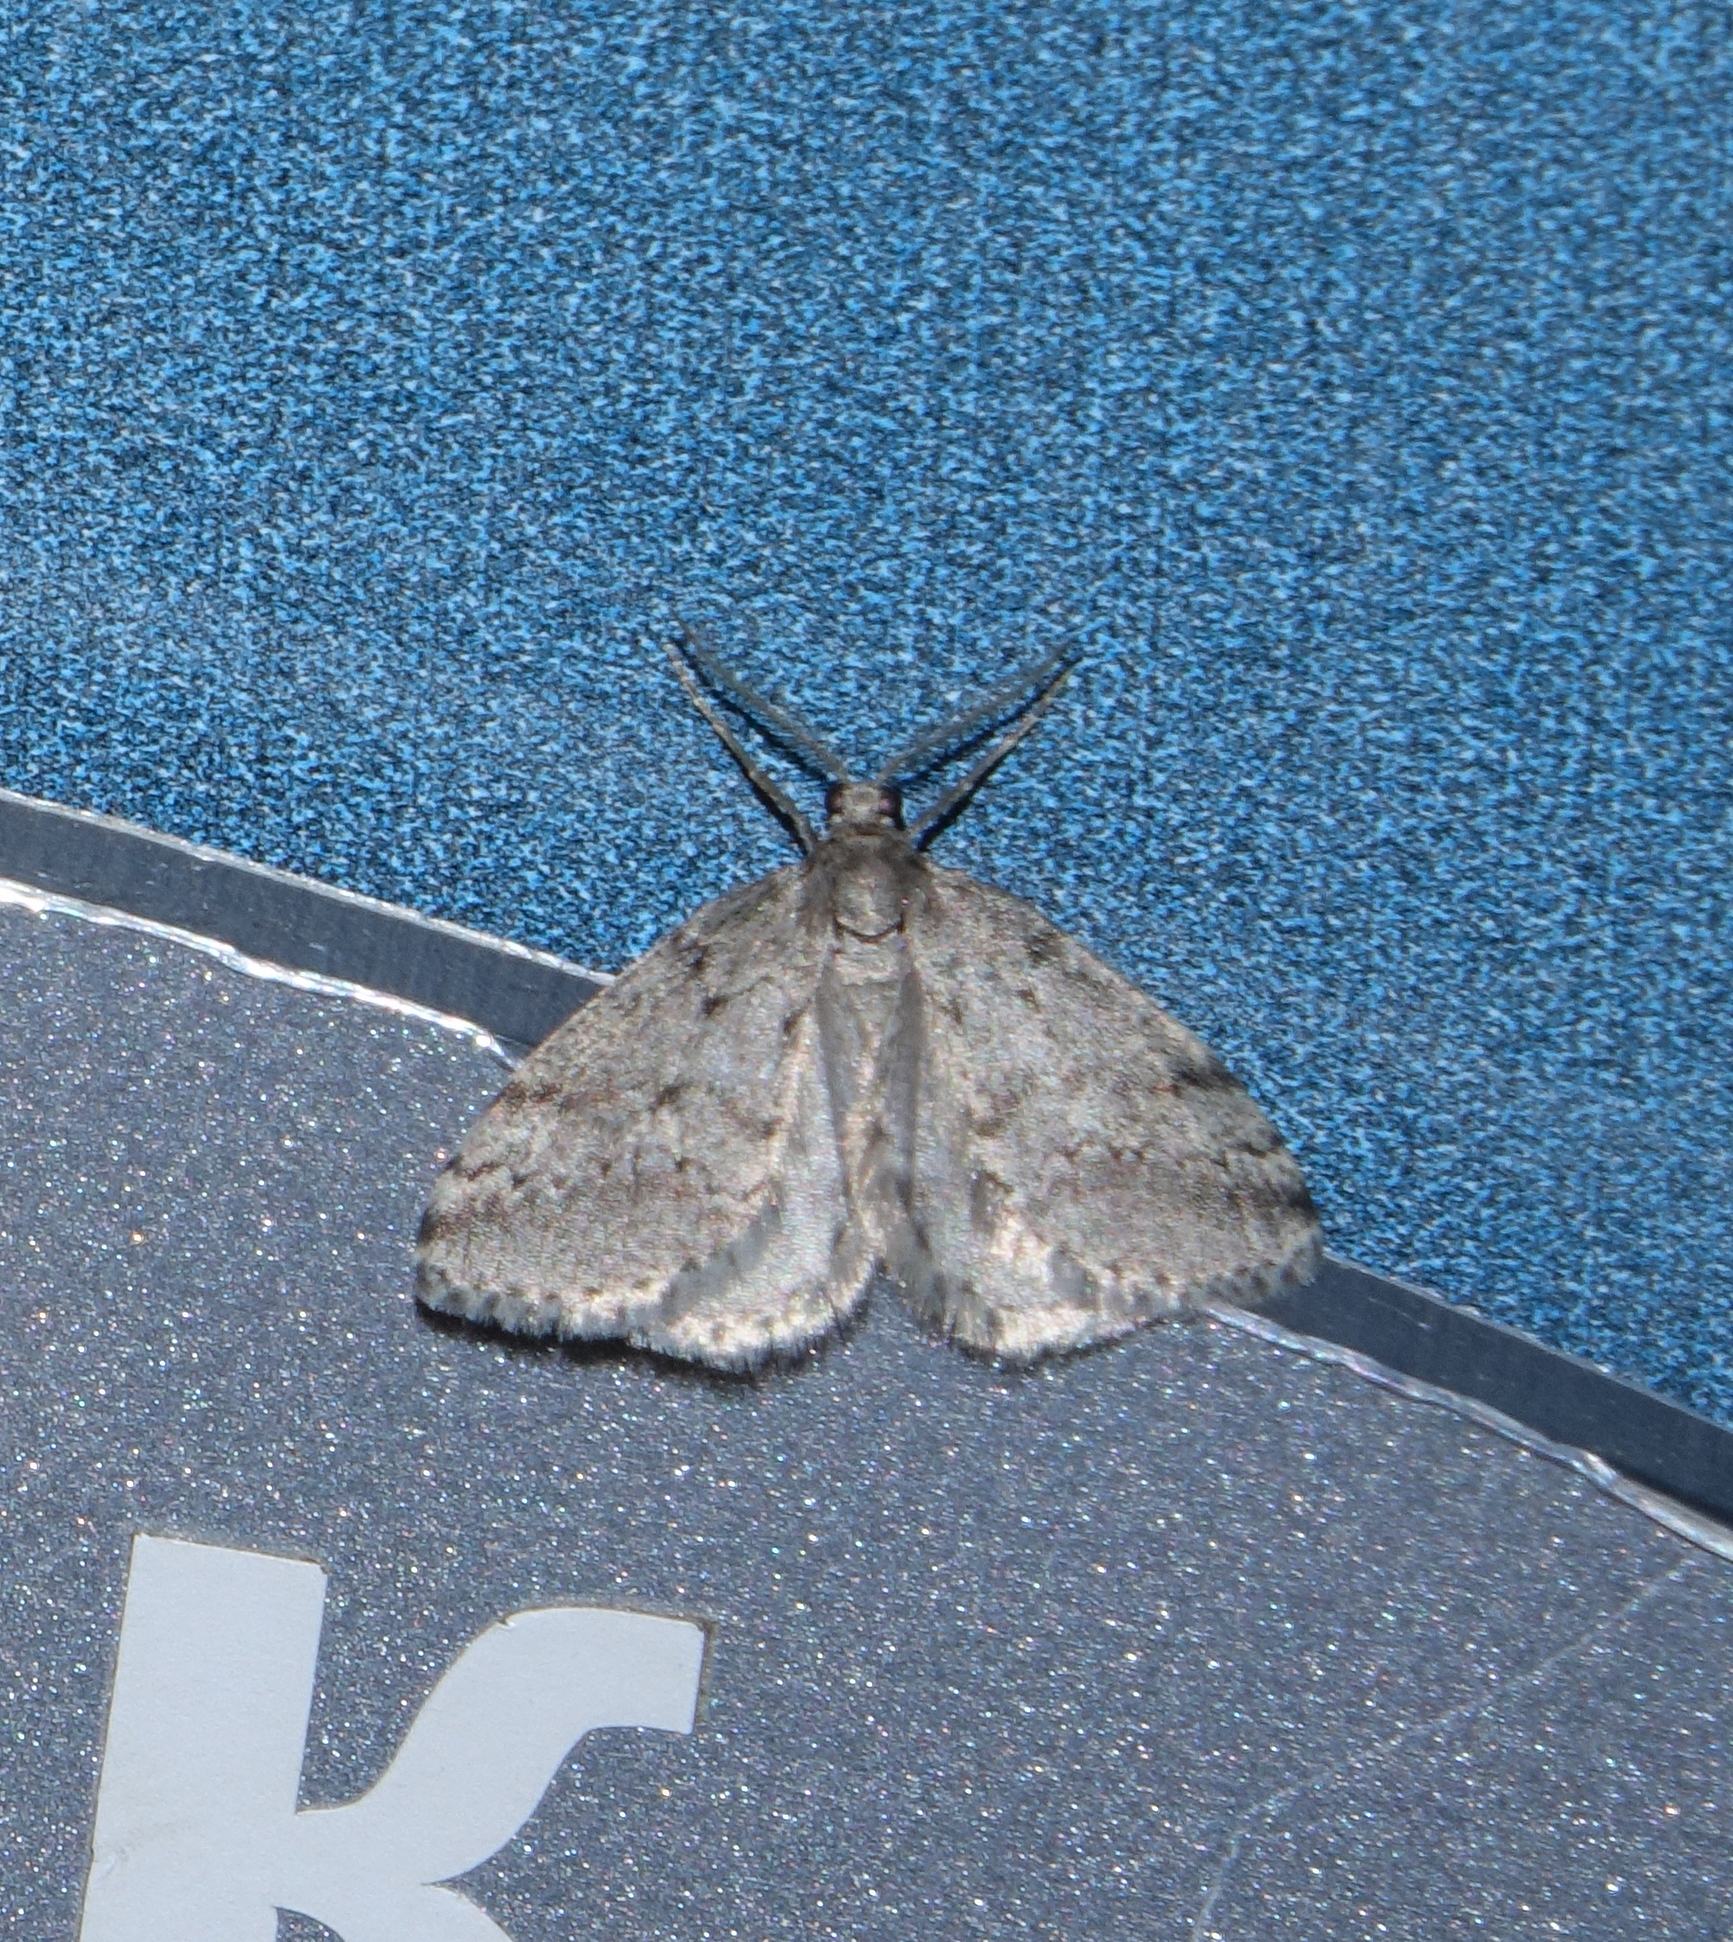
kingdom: Animalia
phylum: Arthropoda
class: Insecta
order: Lepidoptera
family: Geometridae
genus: Eumannia
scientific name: Eumannia oppositaria
